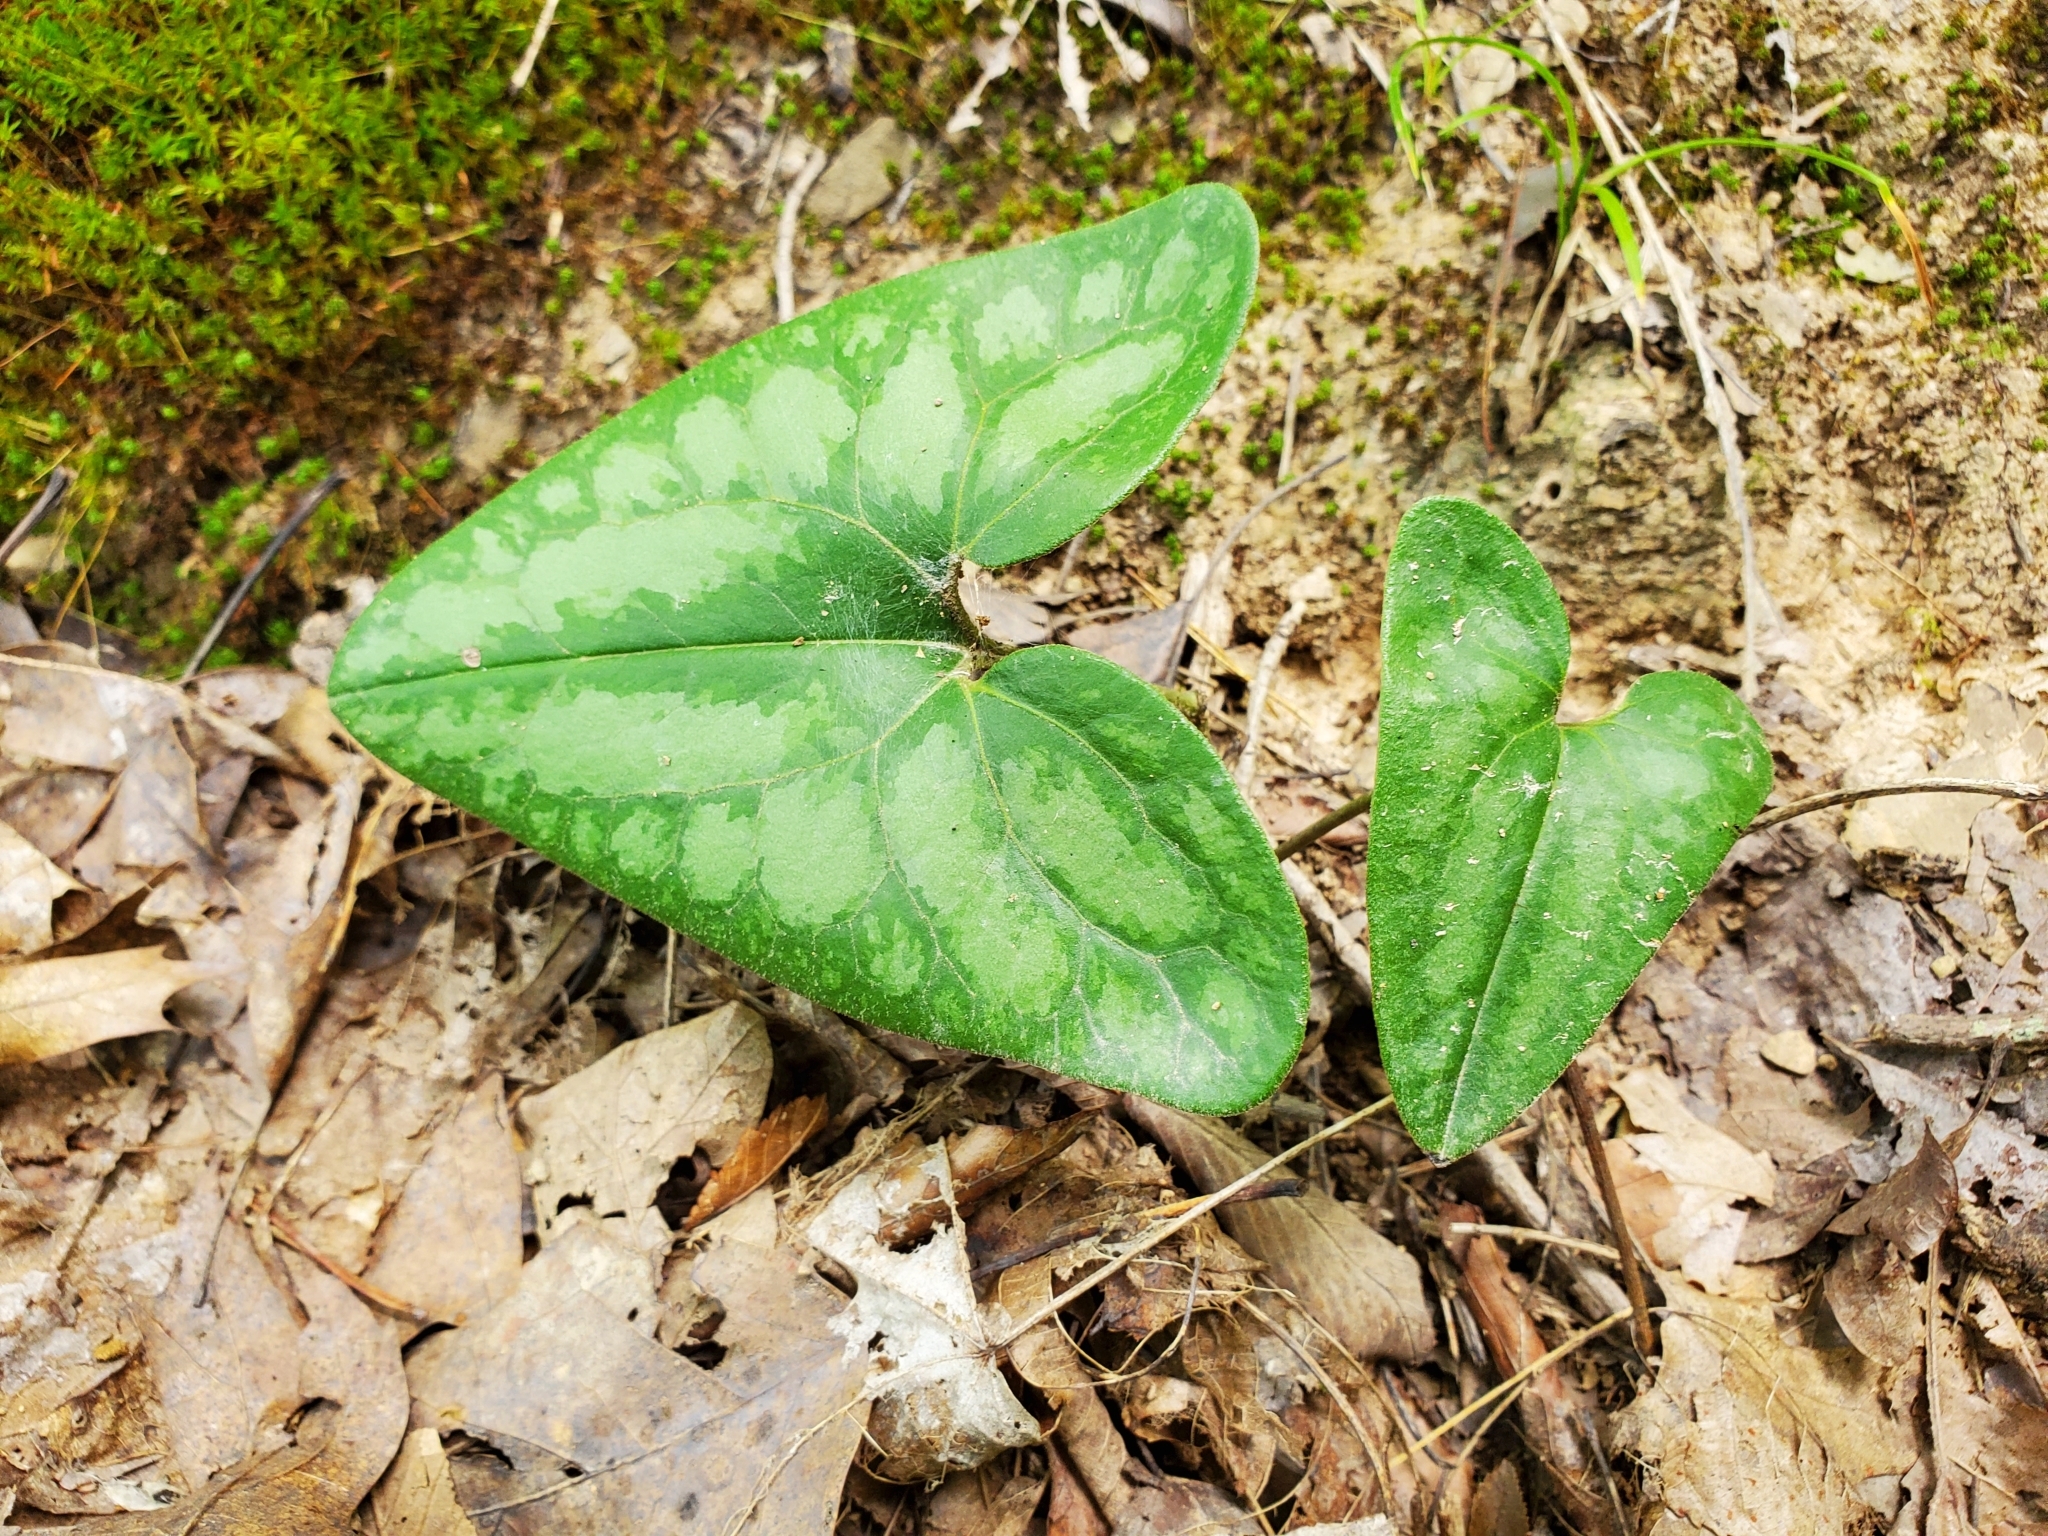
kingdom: Plantae
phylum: Tracheophyta
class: Magnoliopsida
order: Piperales
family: Aristolochiaceae
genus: Hexastylis
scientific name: Hexastylis arifolia
